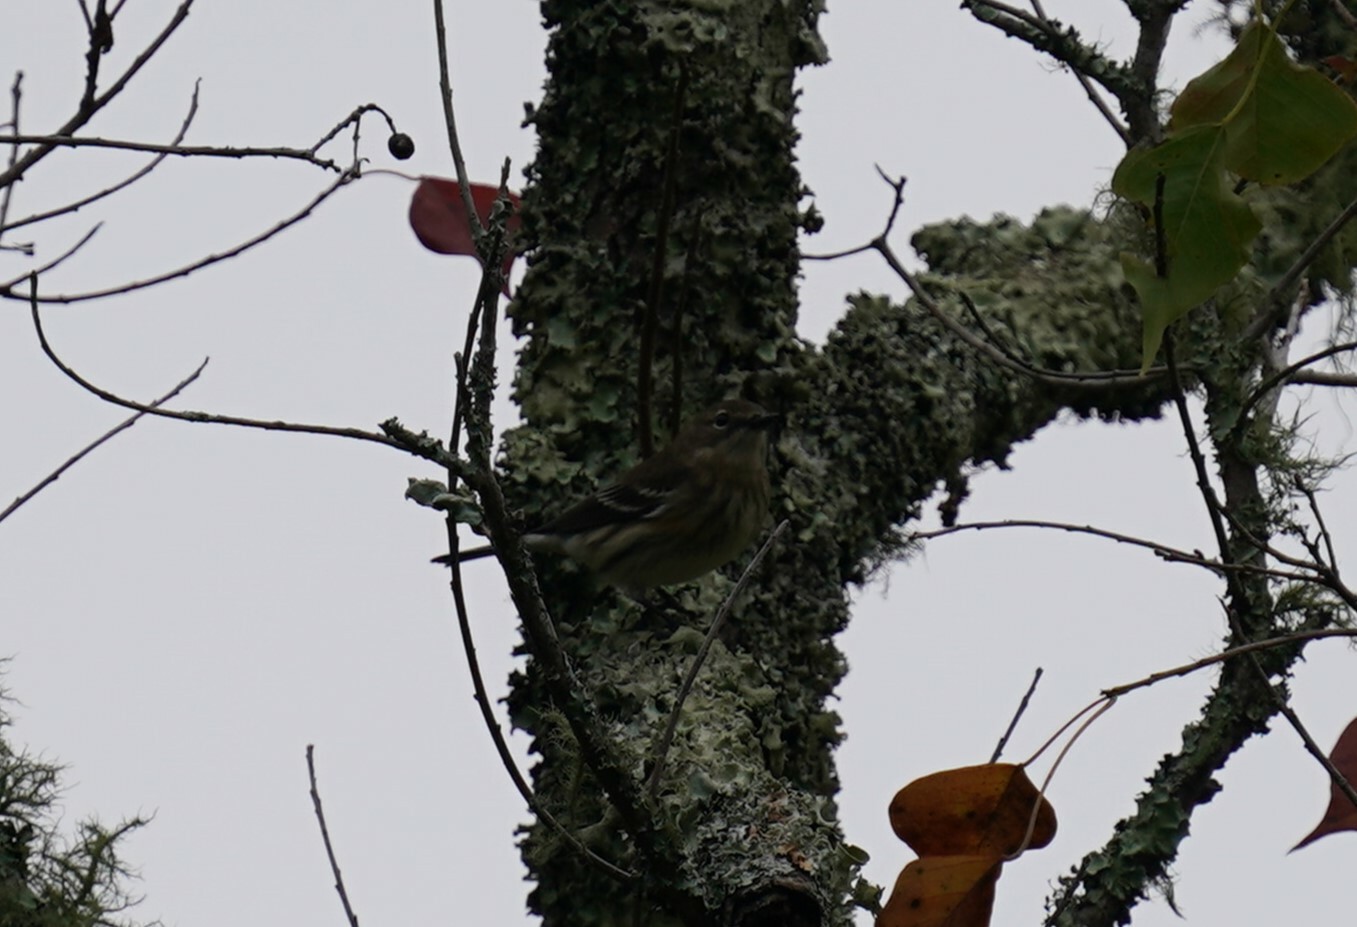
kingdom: Animalia
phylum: Chordata
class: Aves
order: Passeriformes
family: Parulidae
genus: Setophaga
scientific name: Setophaga coronata
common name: Myrtle warbler
